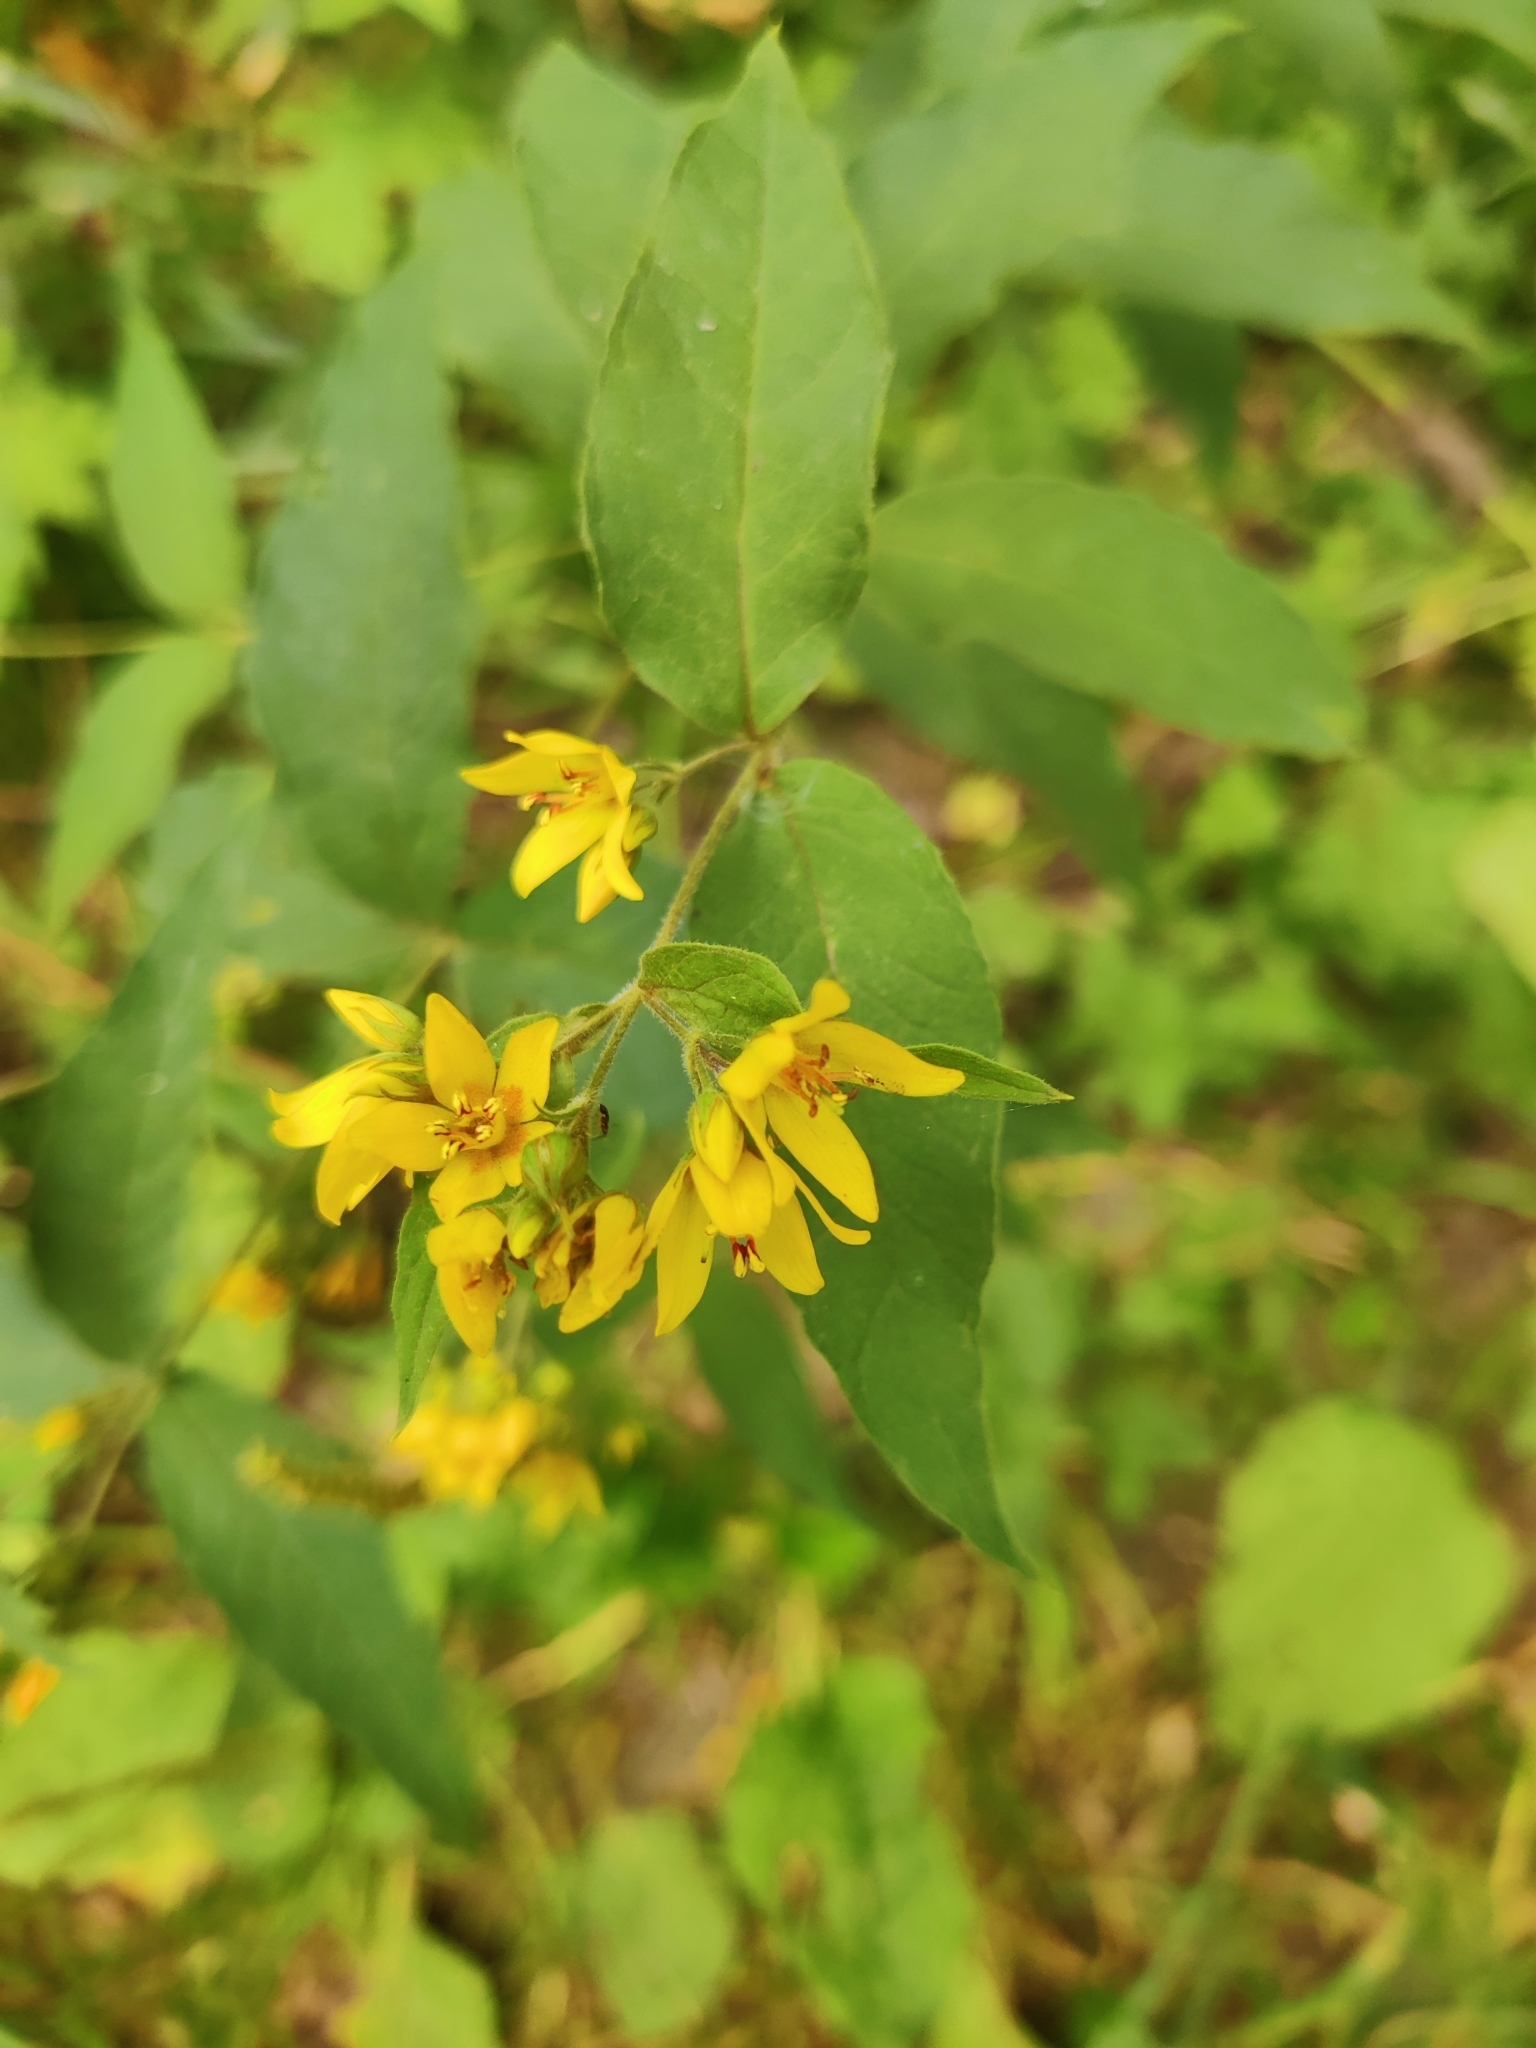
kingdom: Plantae
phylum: Tracheophyta
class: Magnoliopsida
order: Ericales
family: Primulaceae
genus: Lysimachia
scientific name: Lysimachia vulgaris
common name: Yellow loosestrife
